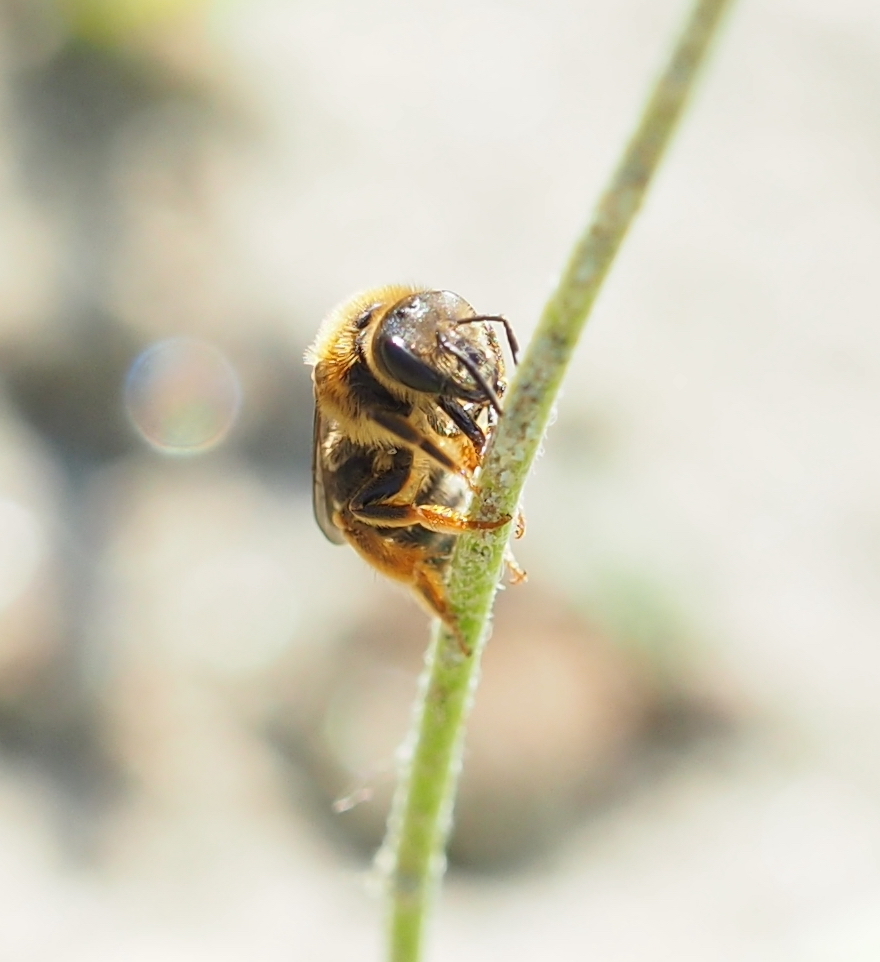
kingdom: Animalia
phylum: Arthropoda
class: Insecta
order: Hymenoptera
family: Halictidae
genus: Halictus
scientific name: Halictus rubicundus
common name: Orange-legged furrow bee
